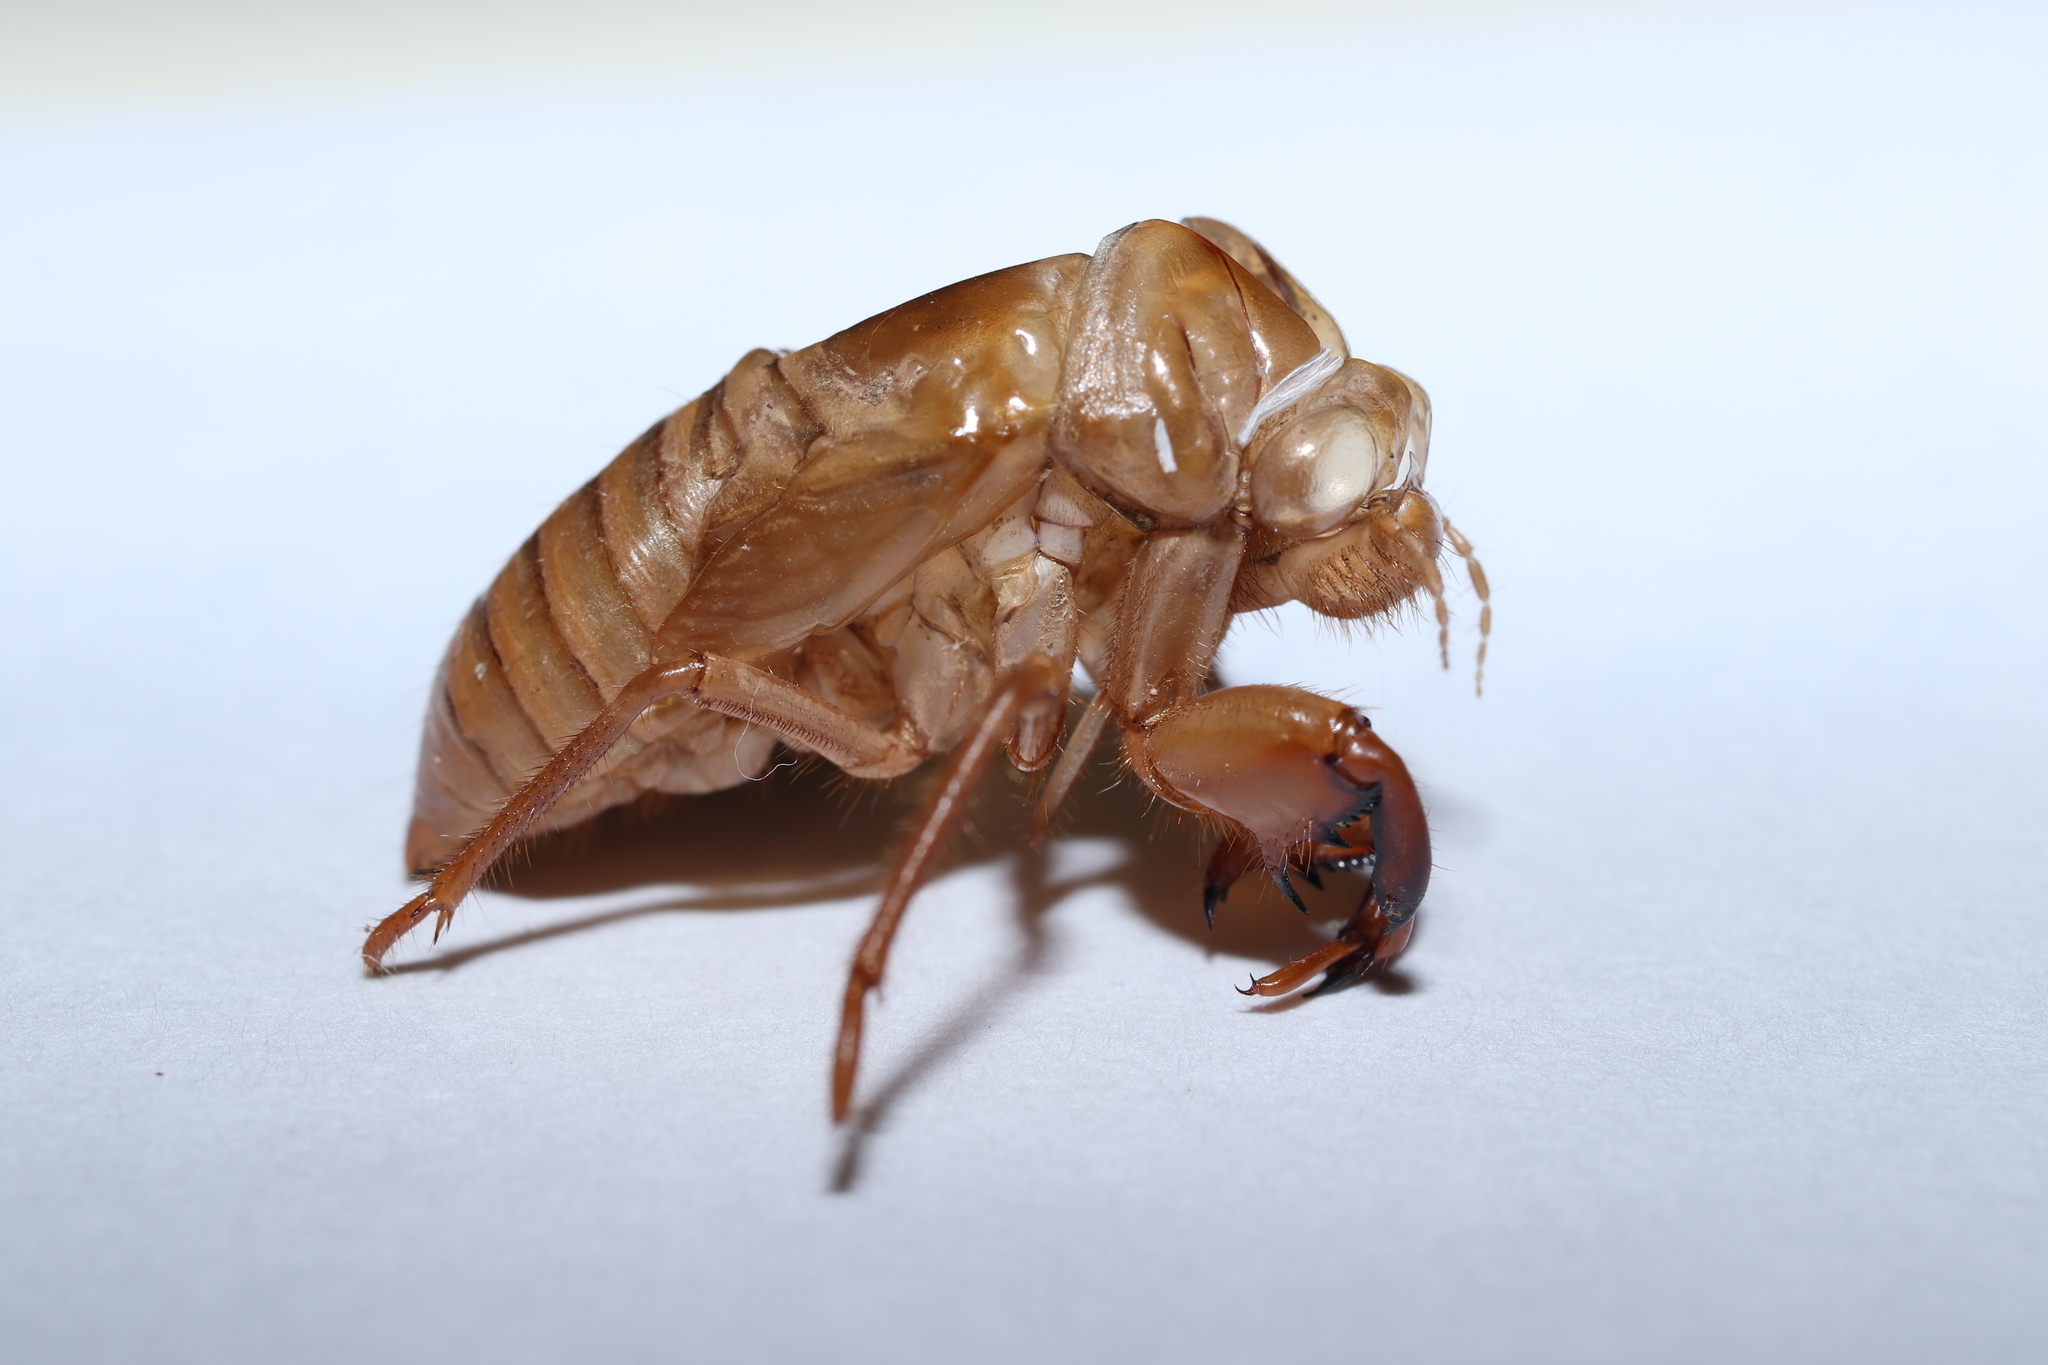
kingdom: Animalia
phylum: Arthropoda
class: Insecta
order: Hemiptera
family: Cicadidae
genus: Tanna
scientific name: Tanna japonensis
